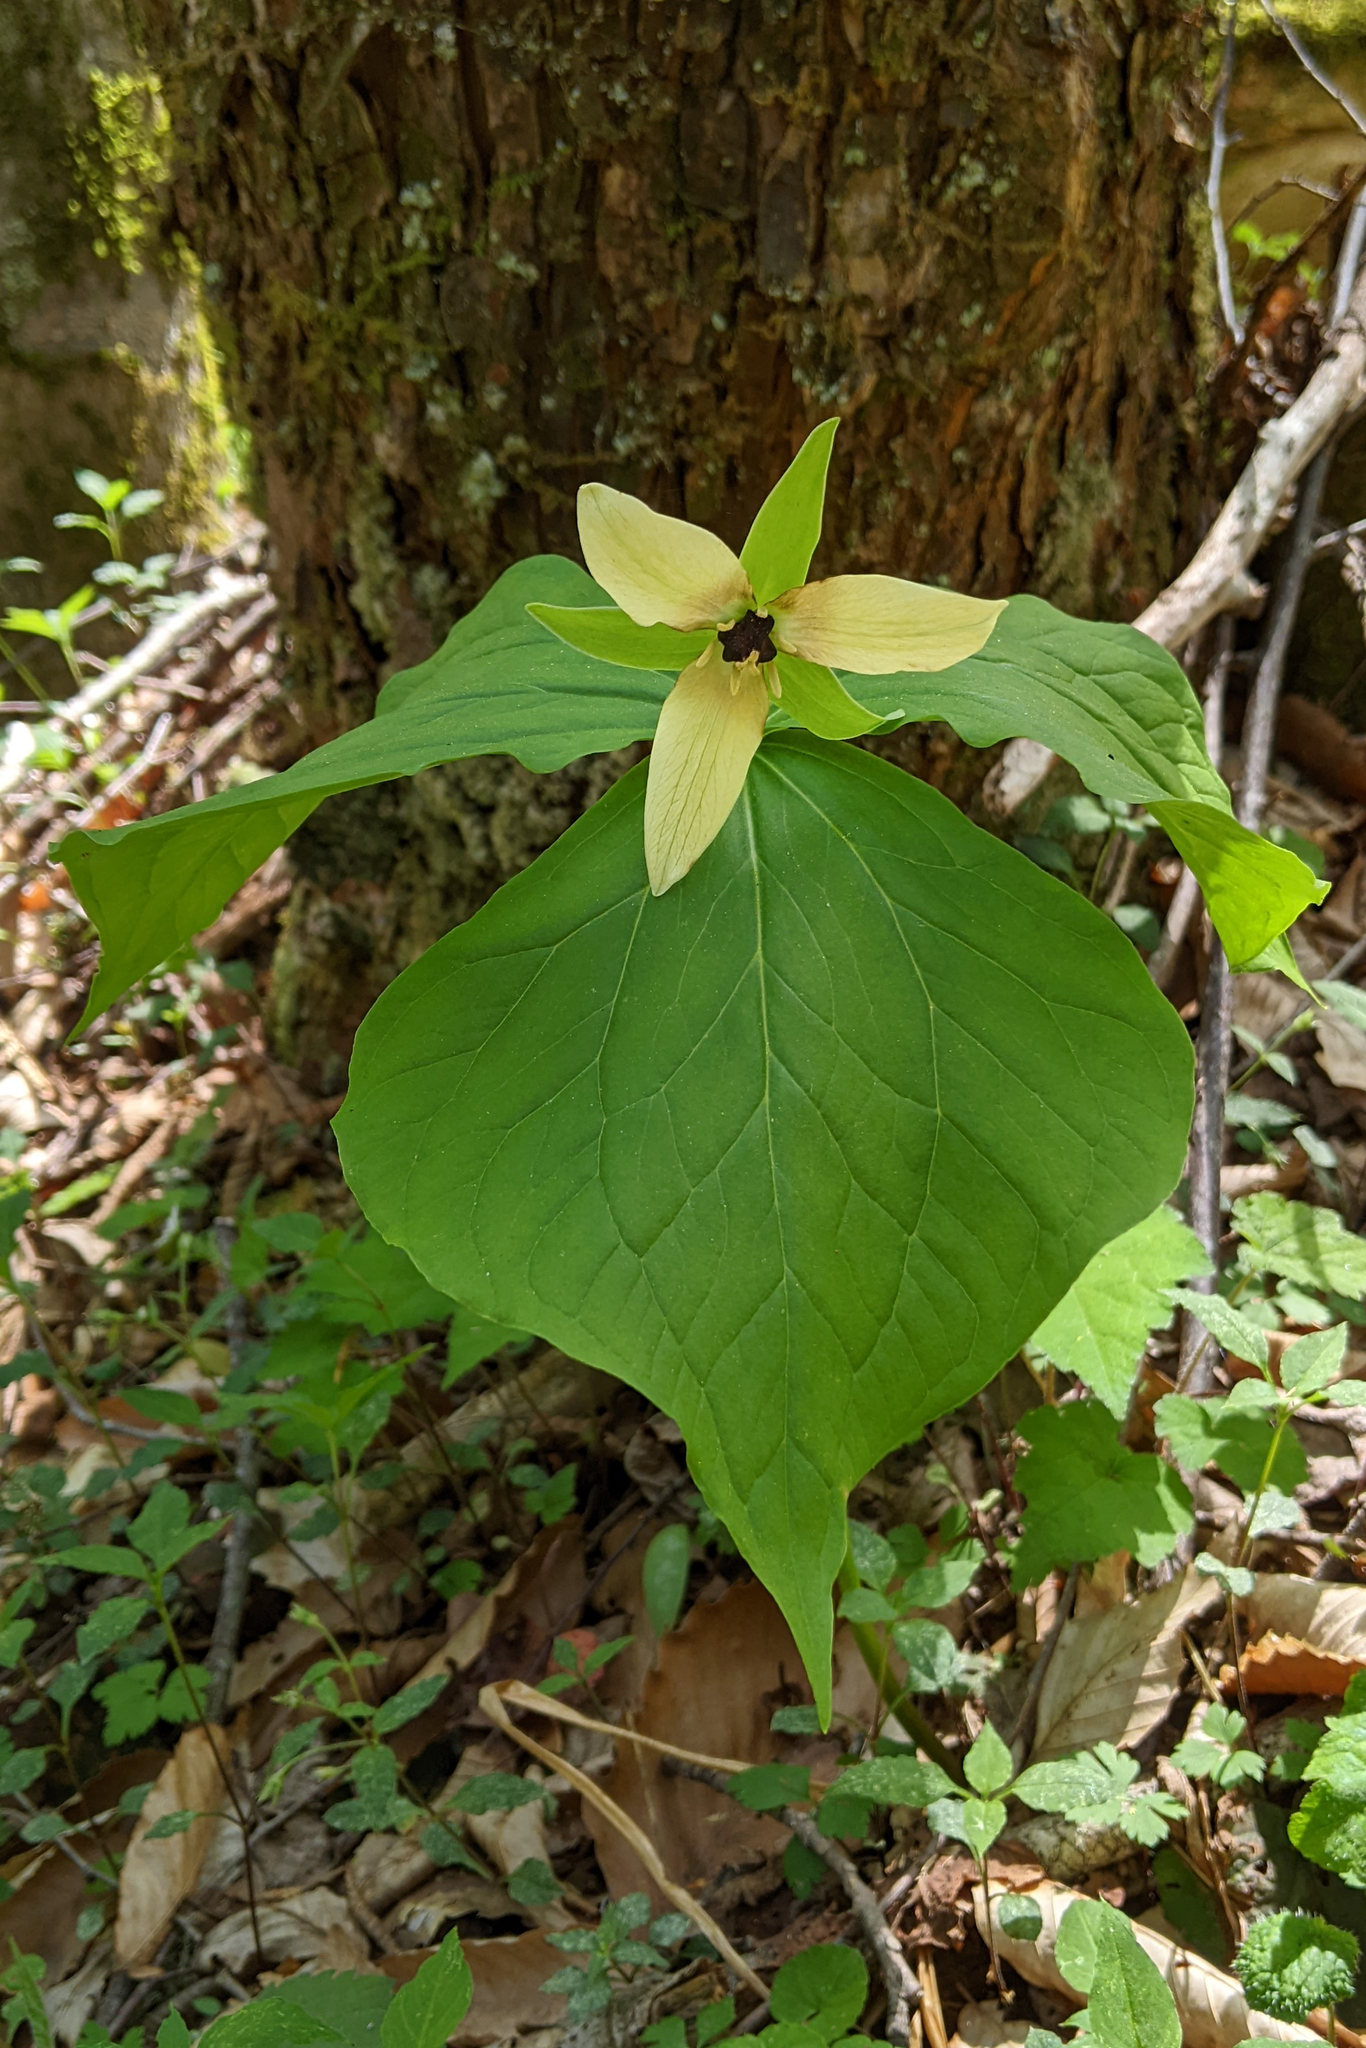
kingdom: Plantae
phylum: Tracheophyta
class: Liliopsida
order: Liliales
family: Melanthiaceae
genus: Trillium
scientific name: Trillium erectum
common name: Purple trillium
